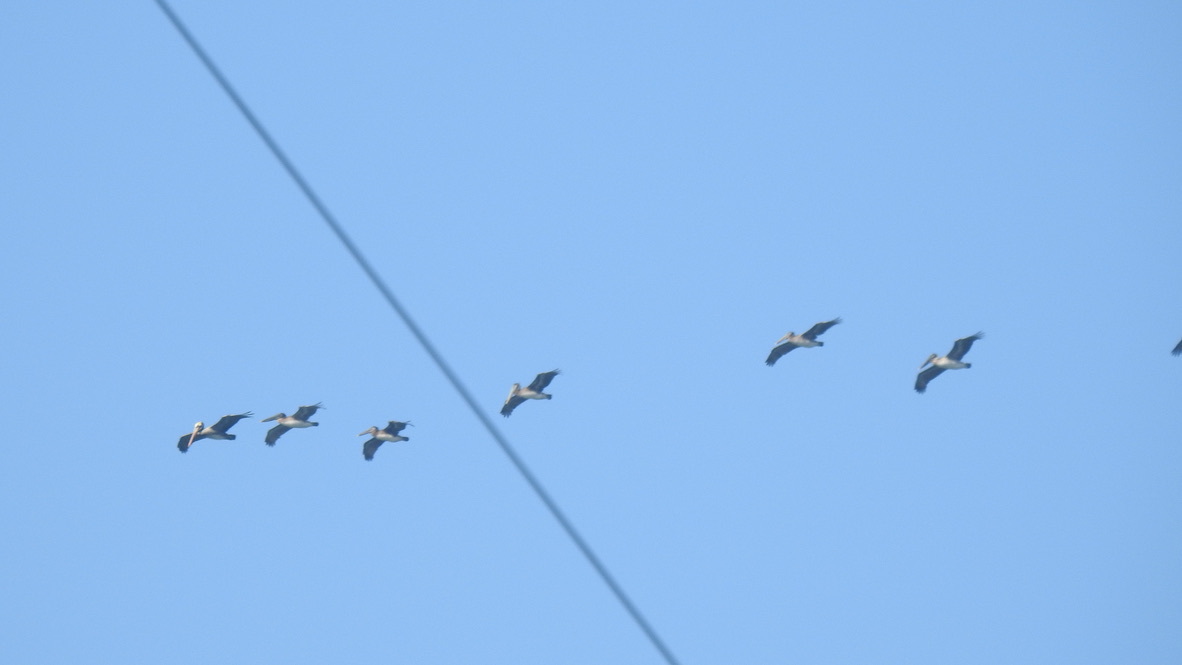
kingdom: Animalia
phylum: Chordata
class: Aves
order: Pelecaniformes
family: Pelecanidae
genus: Pelecanus
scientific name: Pelecanus occidentalis
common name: Brown pelican
